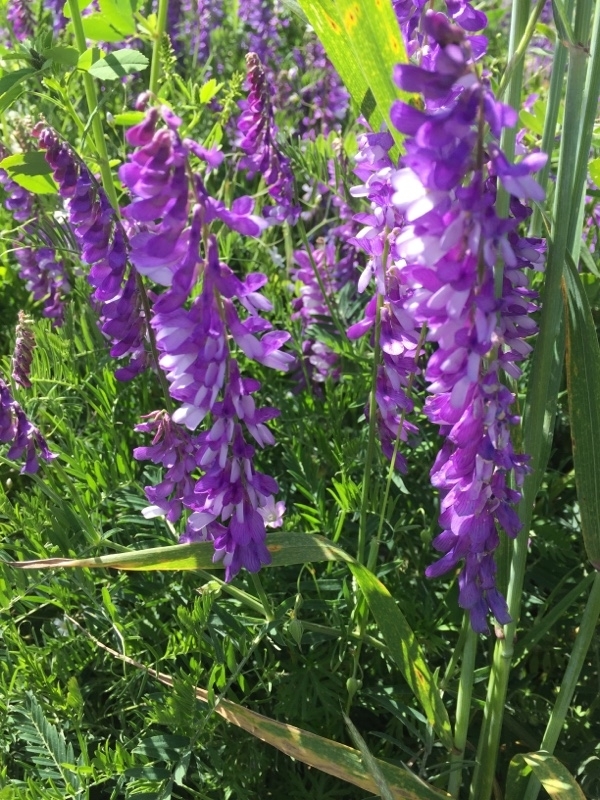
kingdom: Plantae
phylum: Tracheophyta
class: Magnoliopsida
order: Fabales
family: Fabaceae
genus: Vicia
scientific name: Vicia villosa
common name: Fodder vetch
